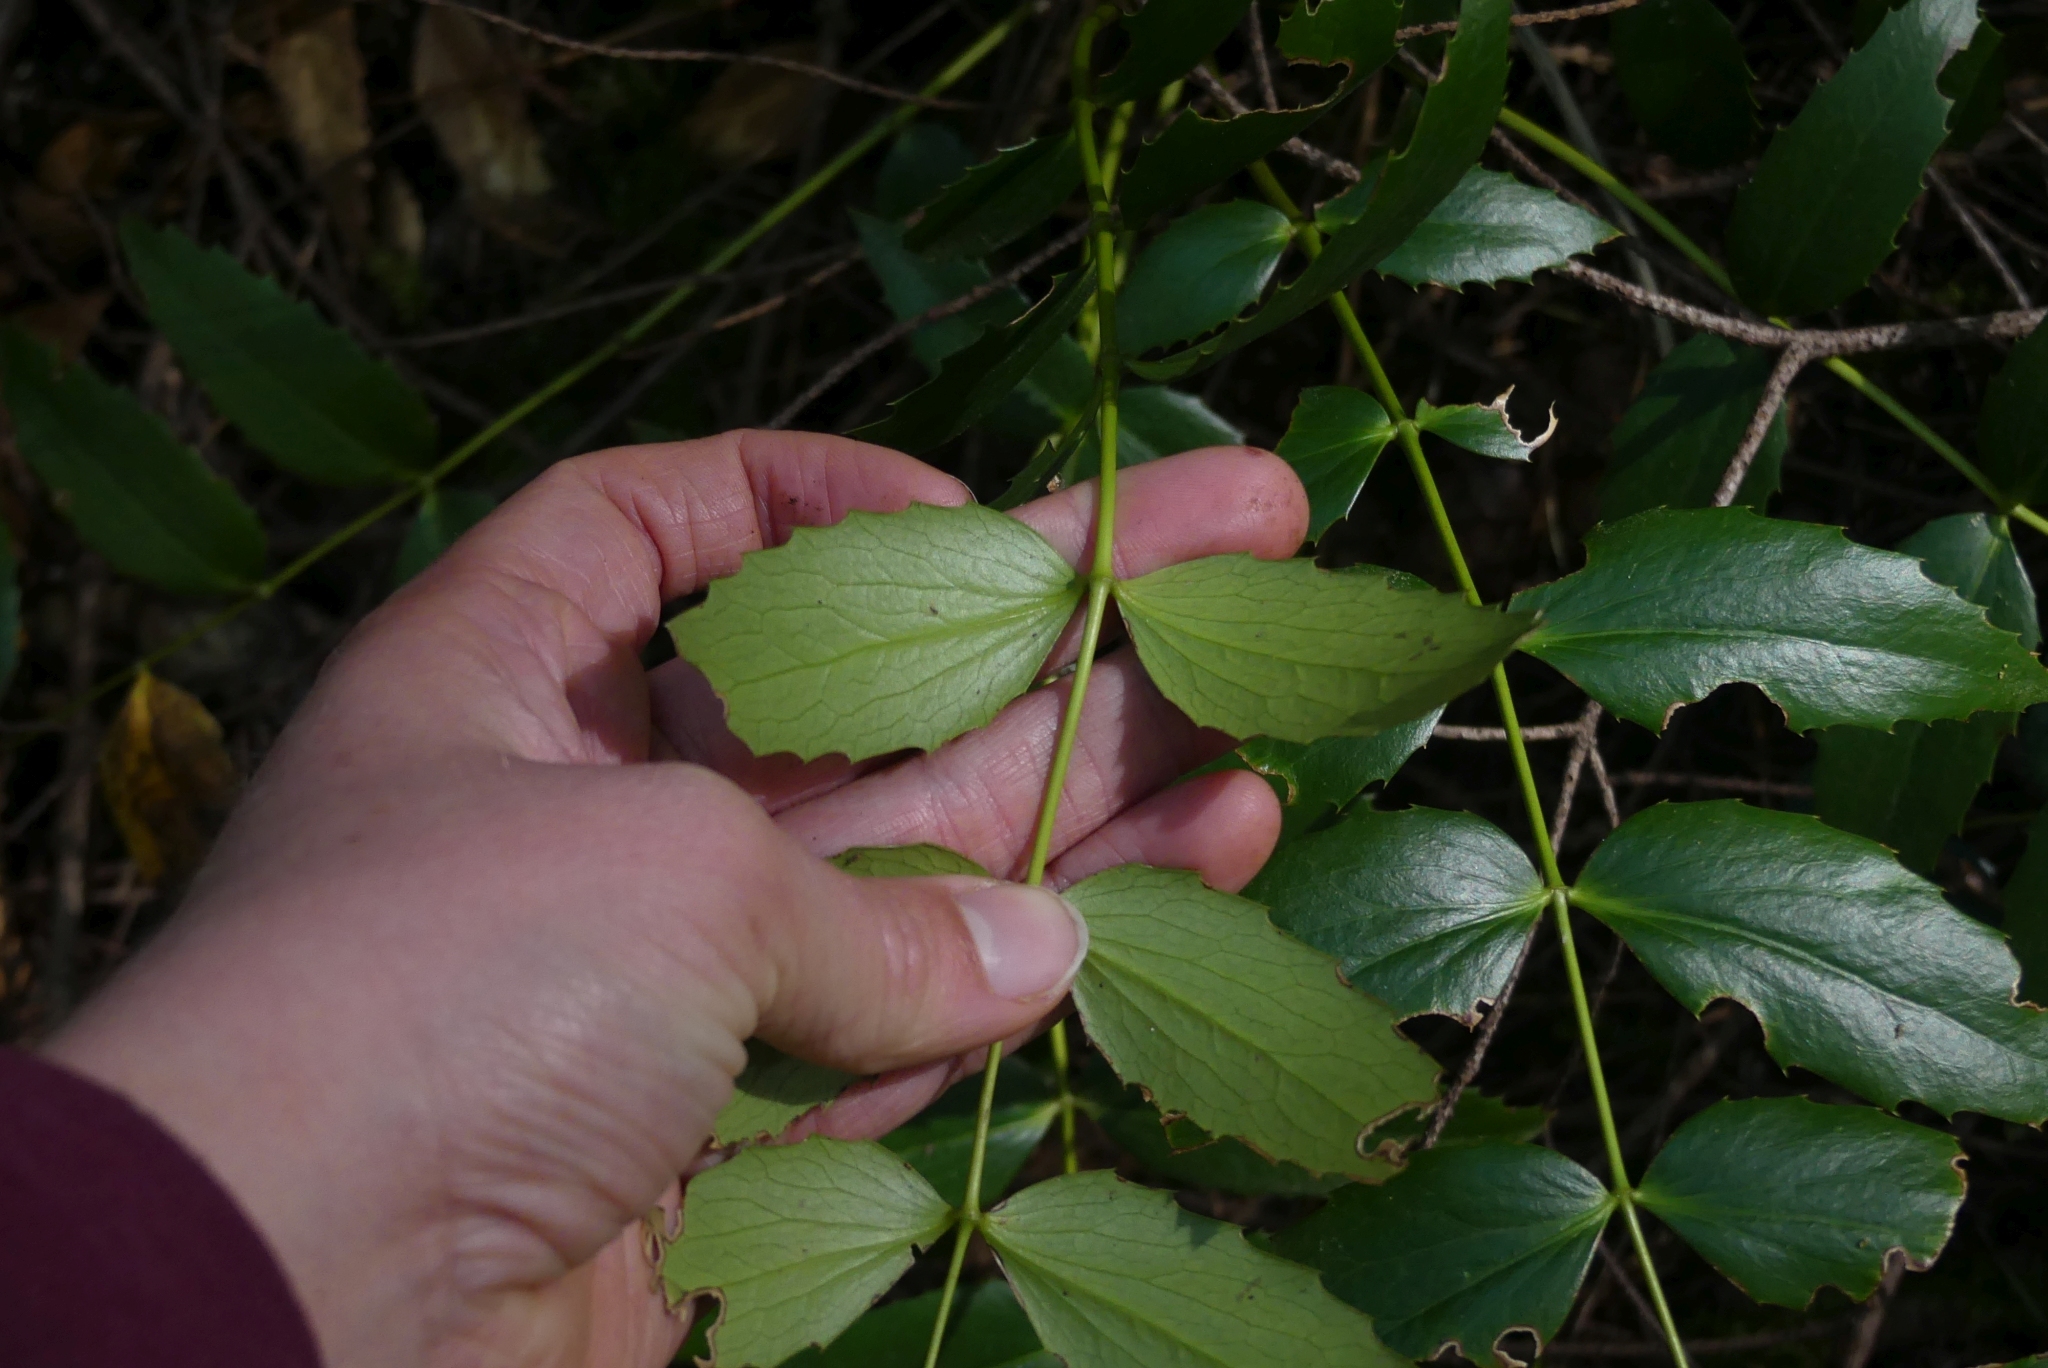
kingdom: Plantae
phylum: Tracheophyta
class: Magnoliopsida
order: Ranunculales
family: Berberidaceae
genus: Mahonia
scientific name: Mahonia nervosa
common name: Cascade oregon-grape
